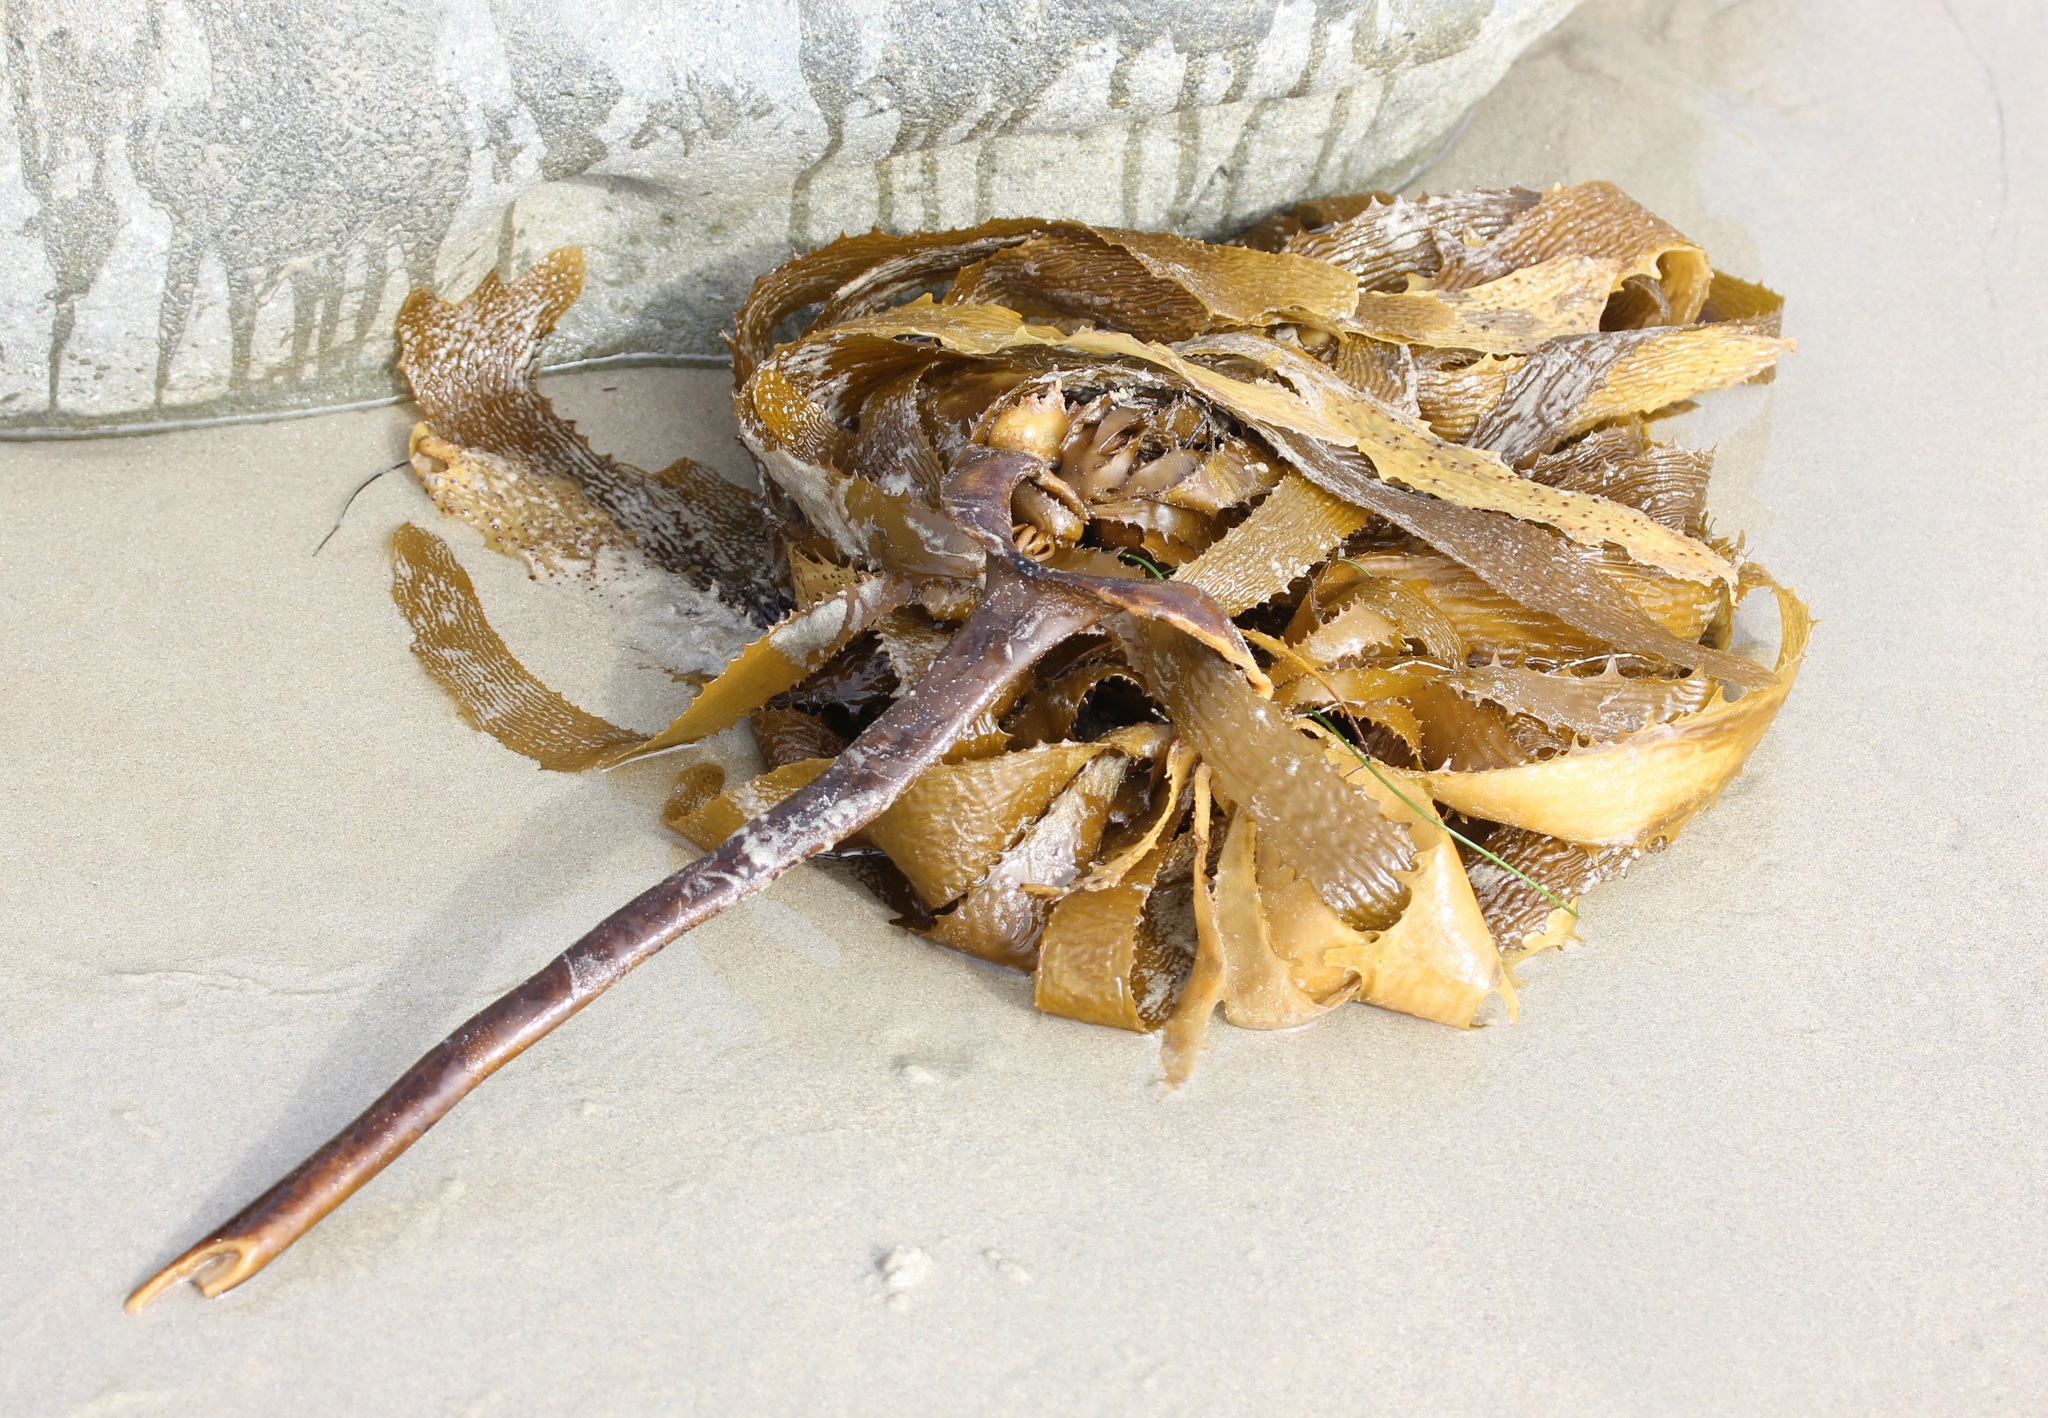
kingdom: Chromista
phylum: Ochrophyta
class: Phaeophyceae
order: Laminariales
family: Lessoniaceae
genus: Eisenia
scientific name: Eisenia arborea
